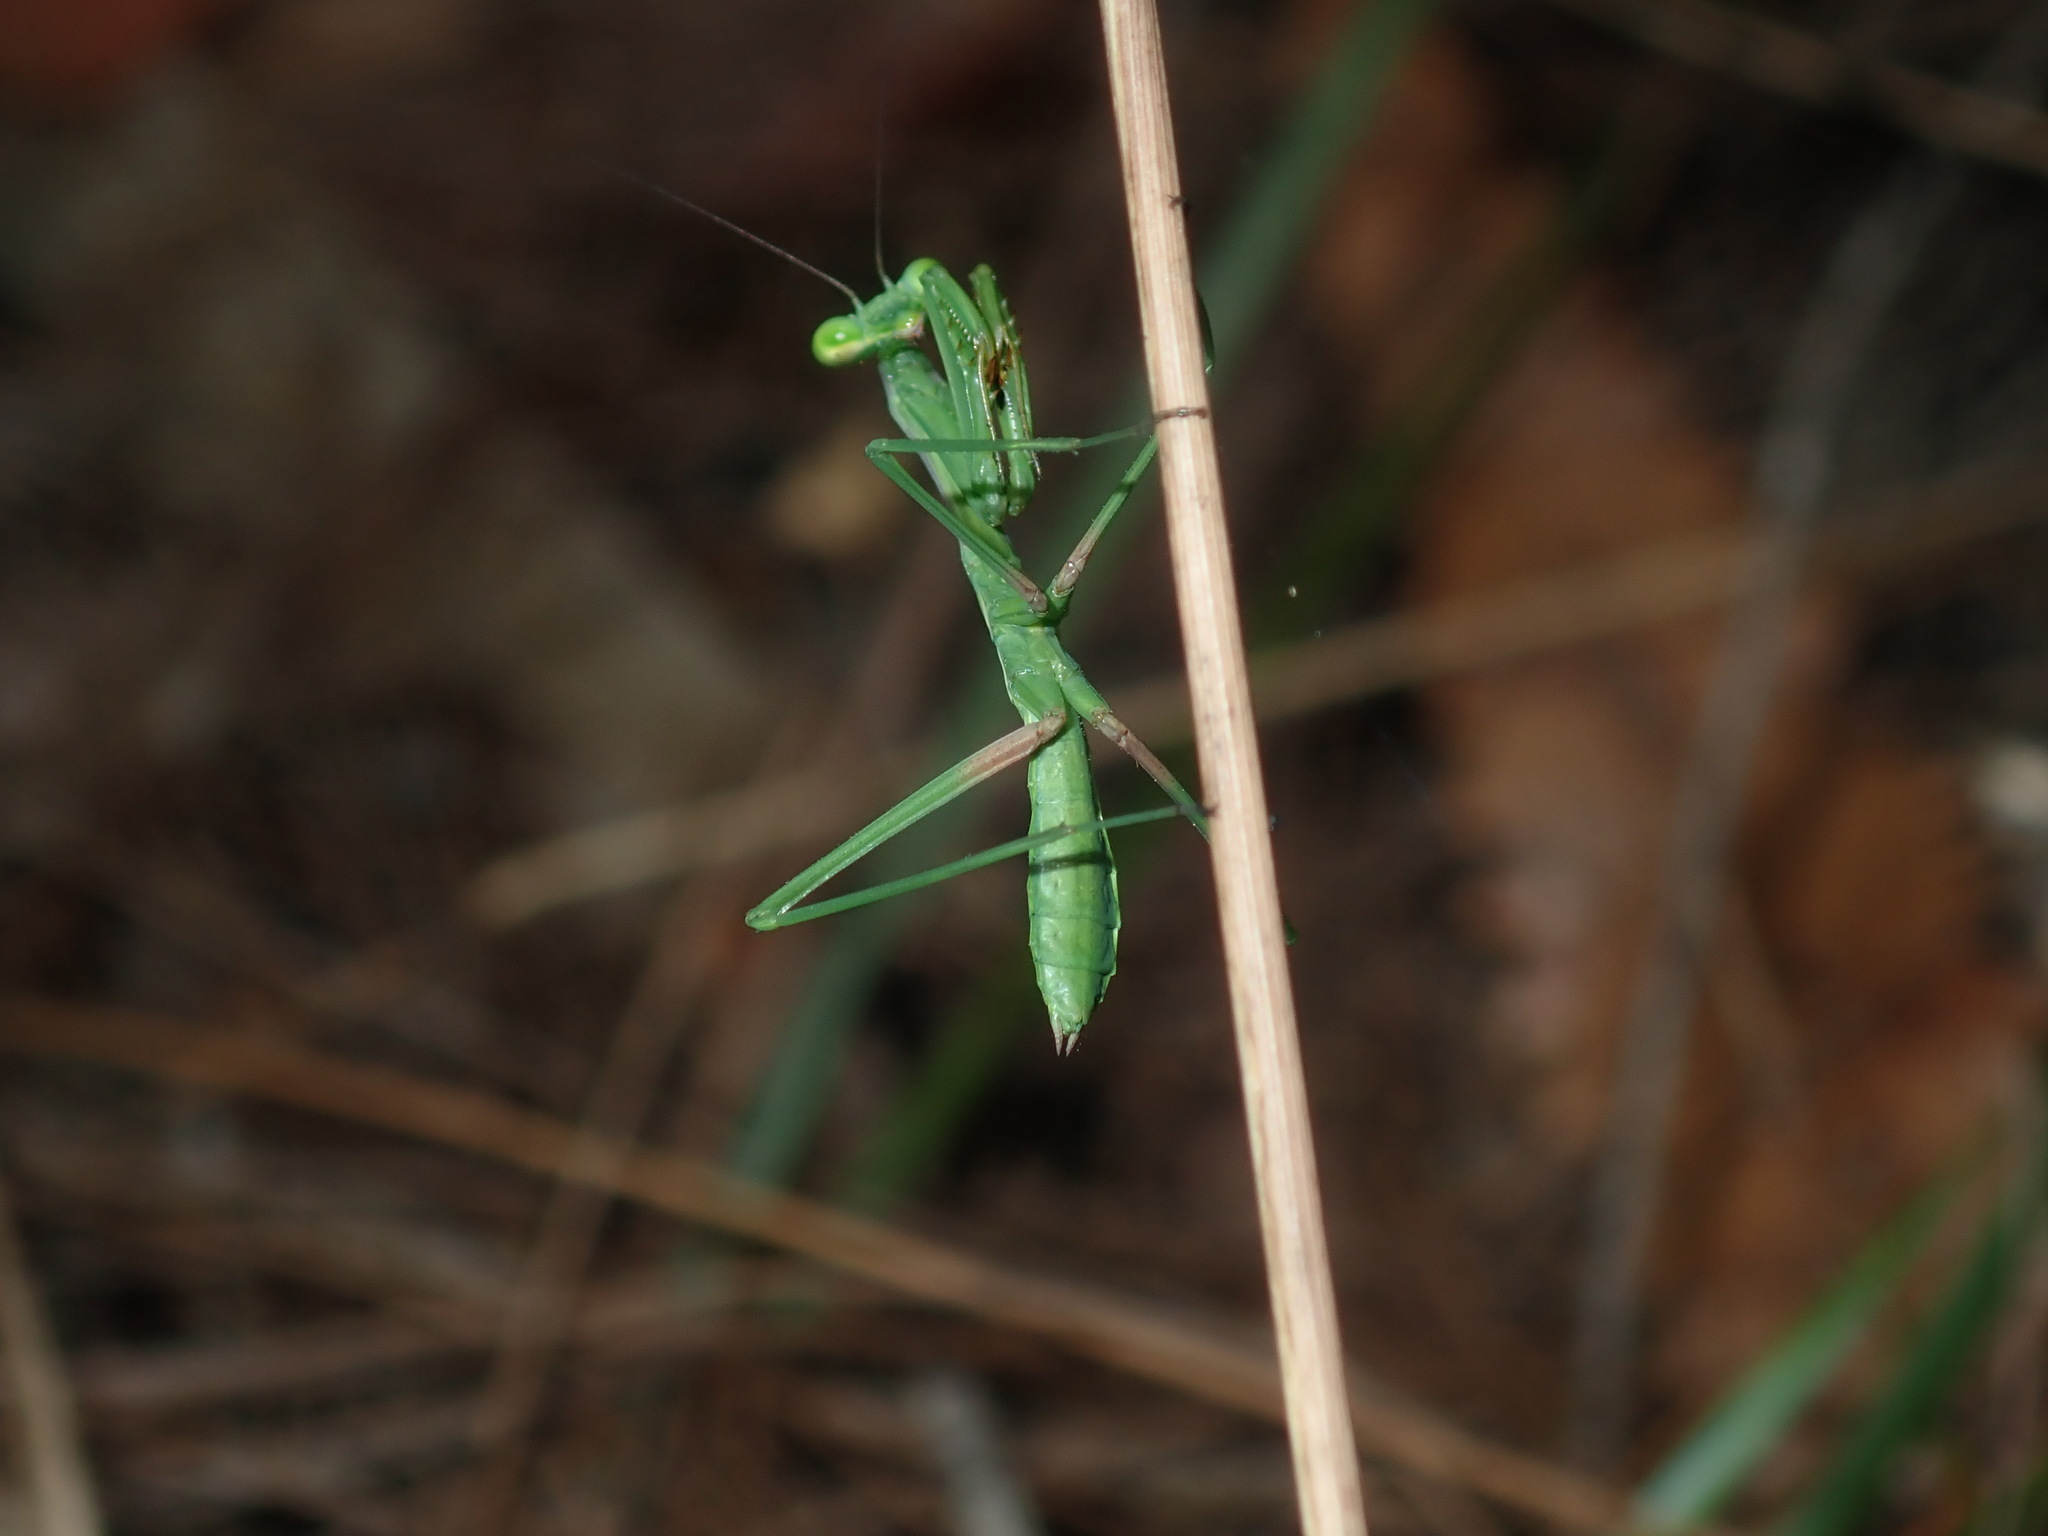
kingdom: Animalia
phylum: Arthropoda
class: Insecta
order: Mantodea
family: Mantidae
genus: Pseudomantis
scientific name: Pseudomantis albofimbriata
